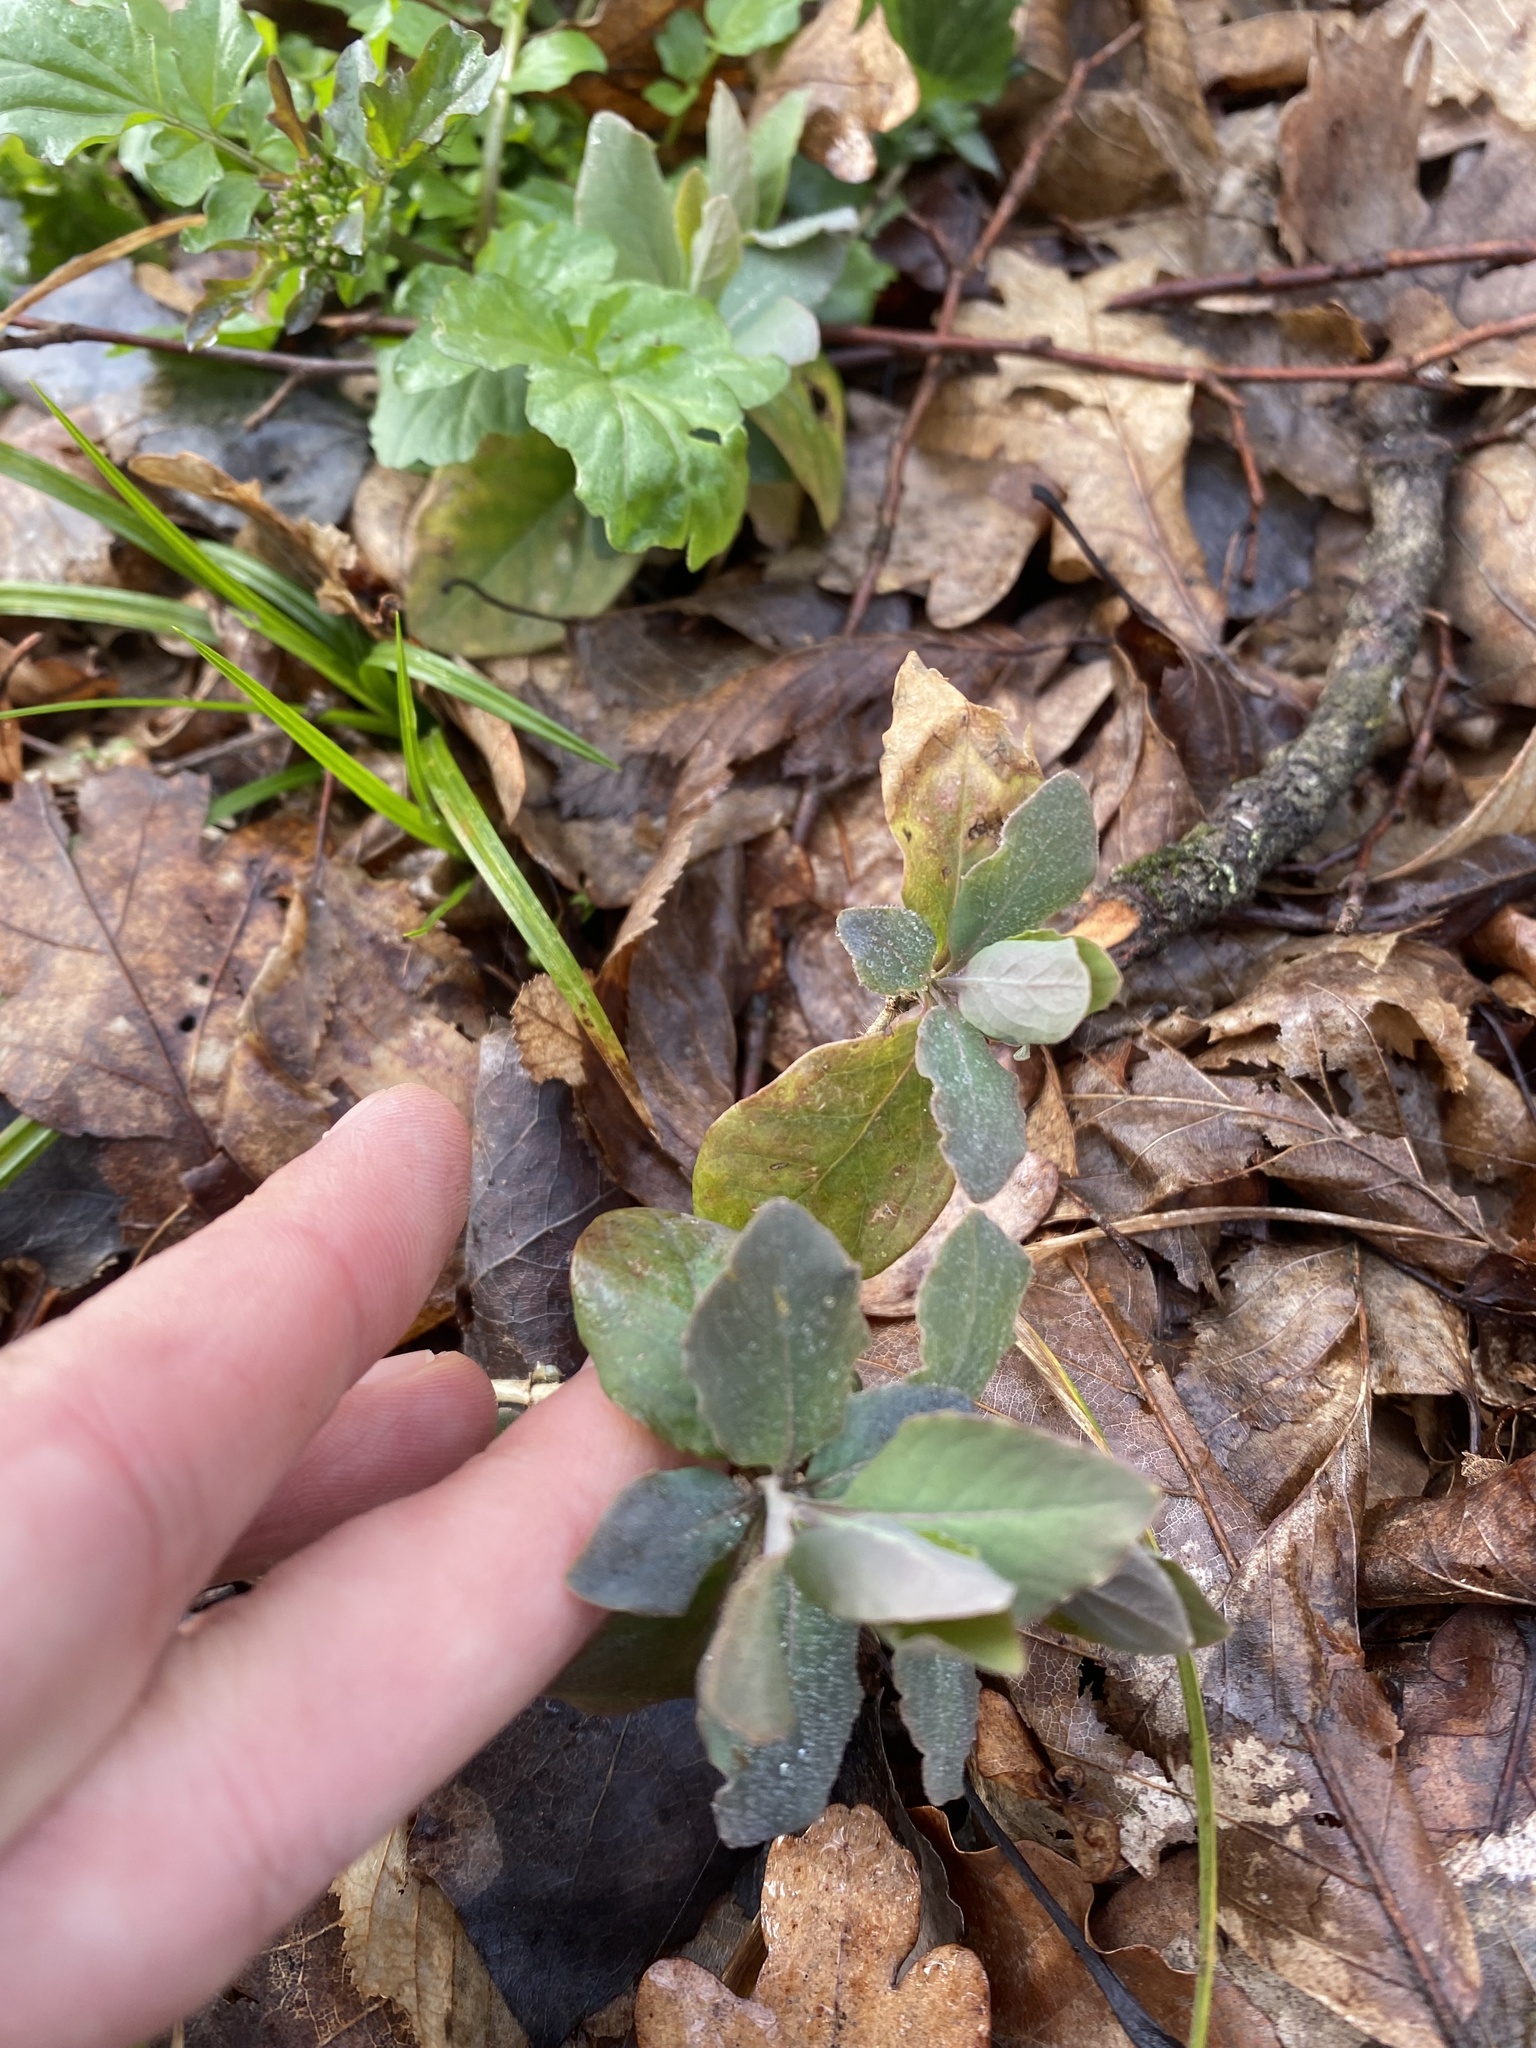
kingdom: Plantae
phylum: Tracheophyta
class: Magnoliopsida
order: Dipsacales
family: Caprifoliaceae
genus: Lonicera
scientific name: Lonicera caprifolium
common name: Perfoliate honeysuckle
